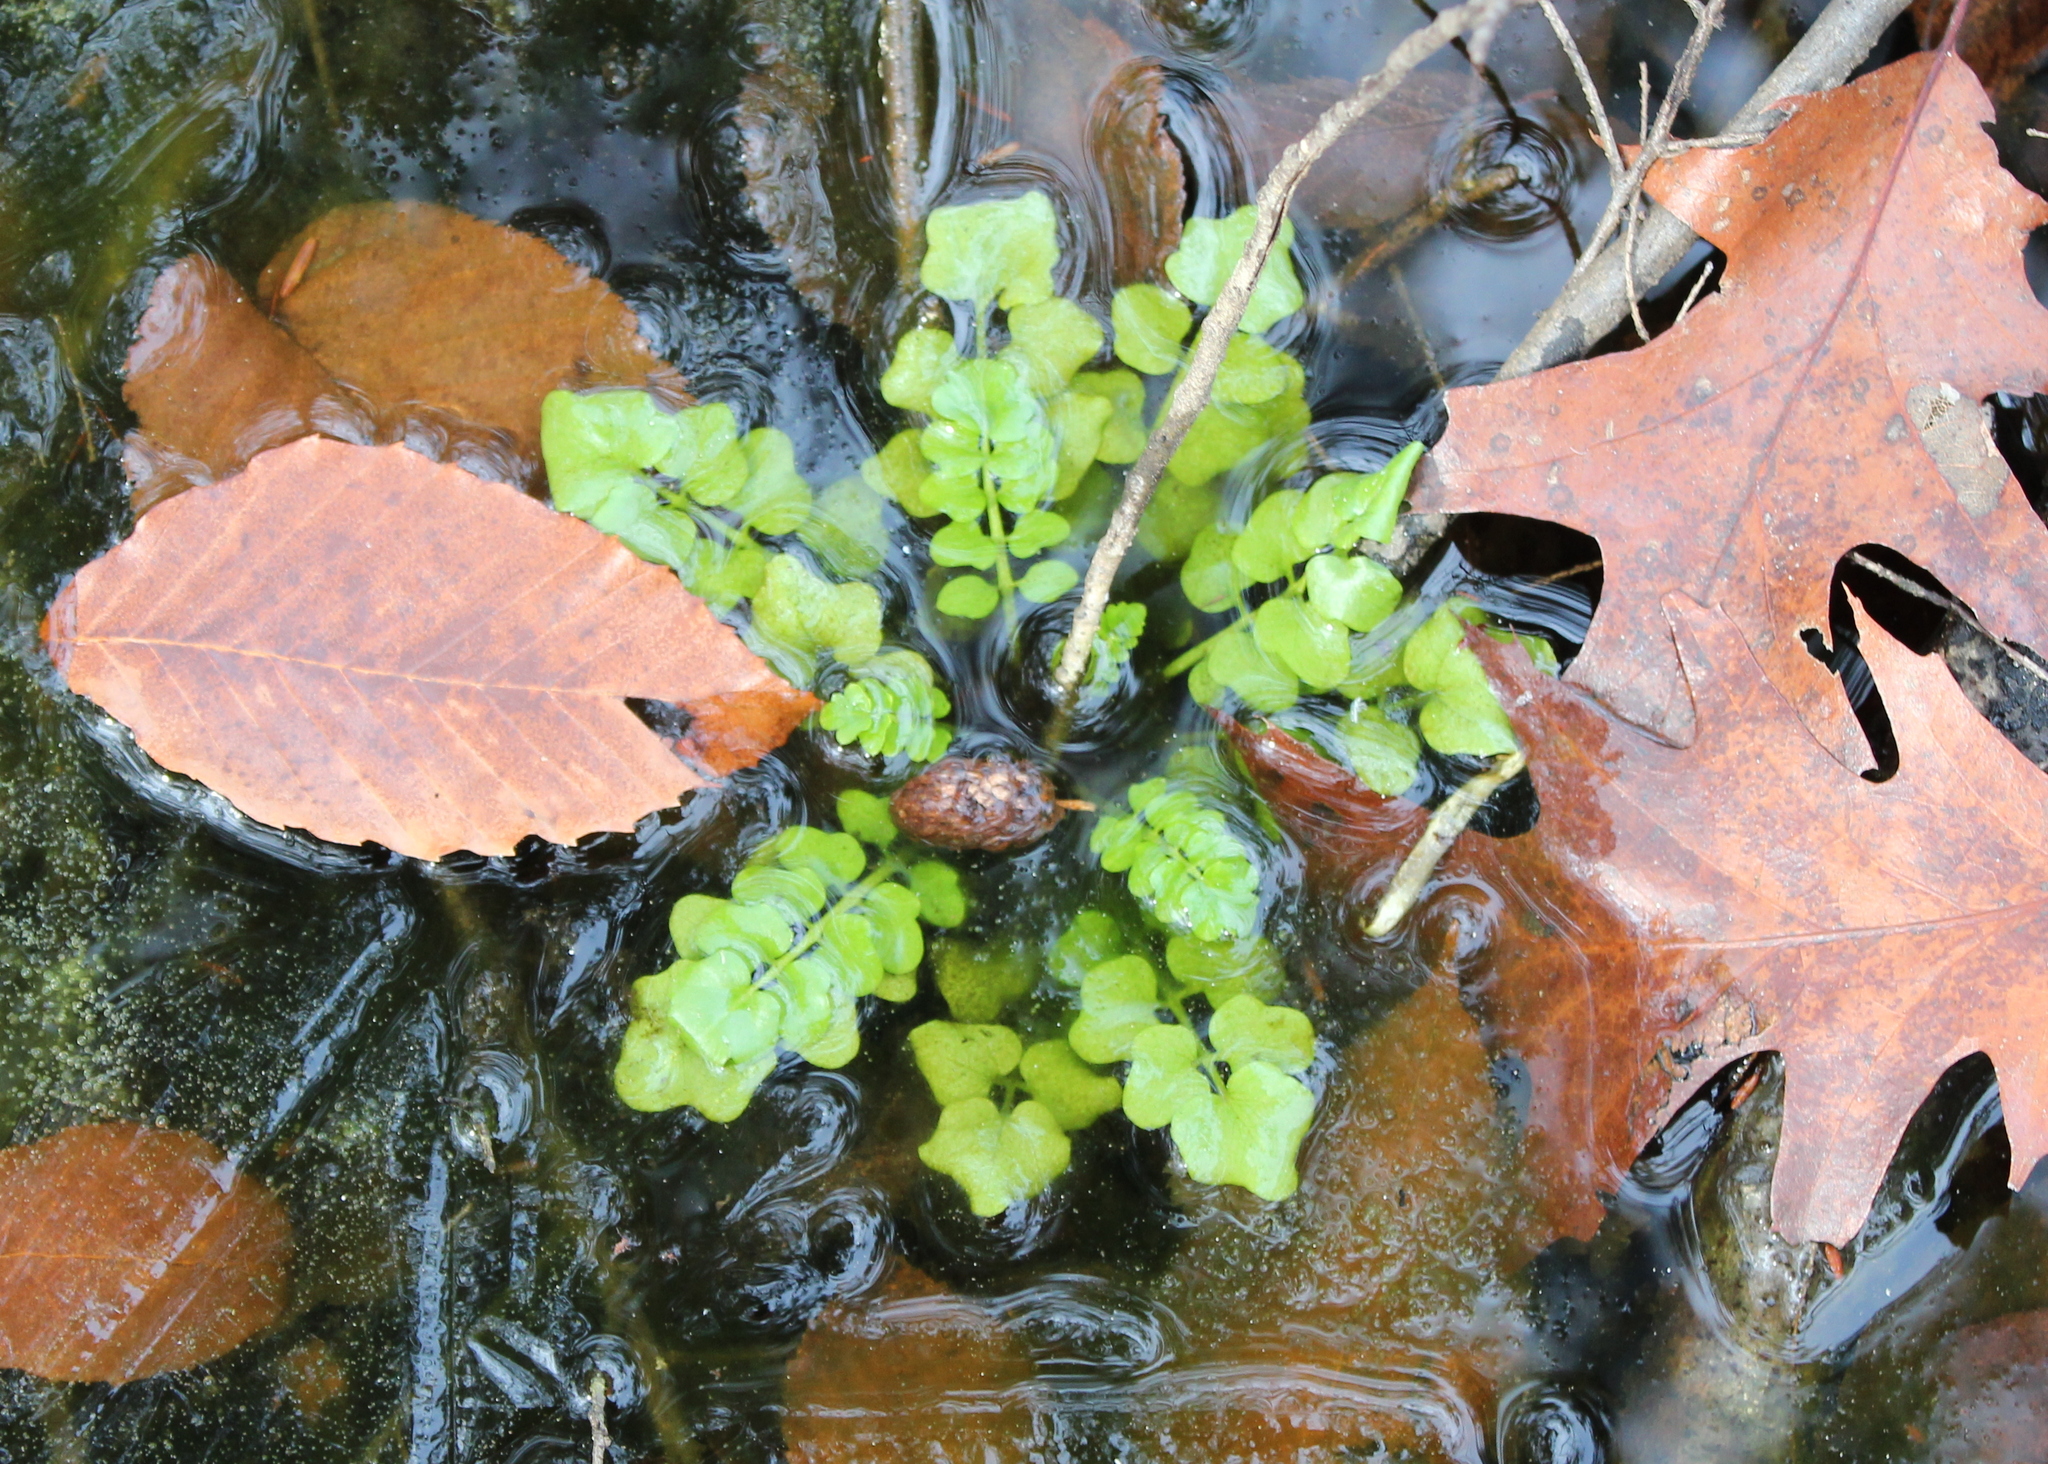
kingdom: Plantae
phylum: Tracheophyta
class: Magnoliopsida
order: Brassicales
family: Brassicaceae
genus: Cardamine
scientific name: Cardamine pensylvanica
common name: Pennsylvania bittercress
